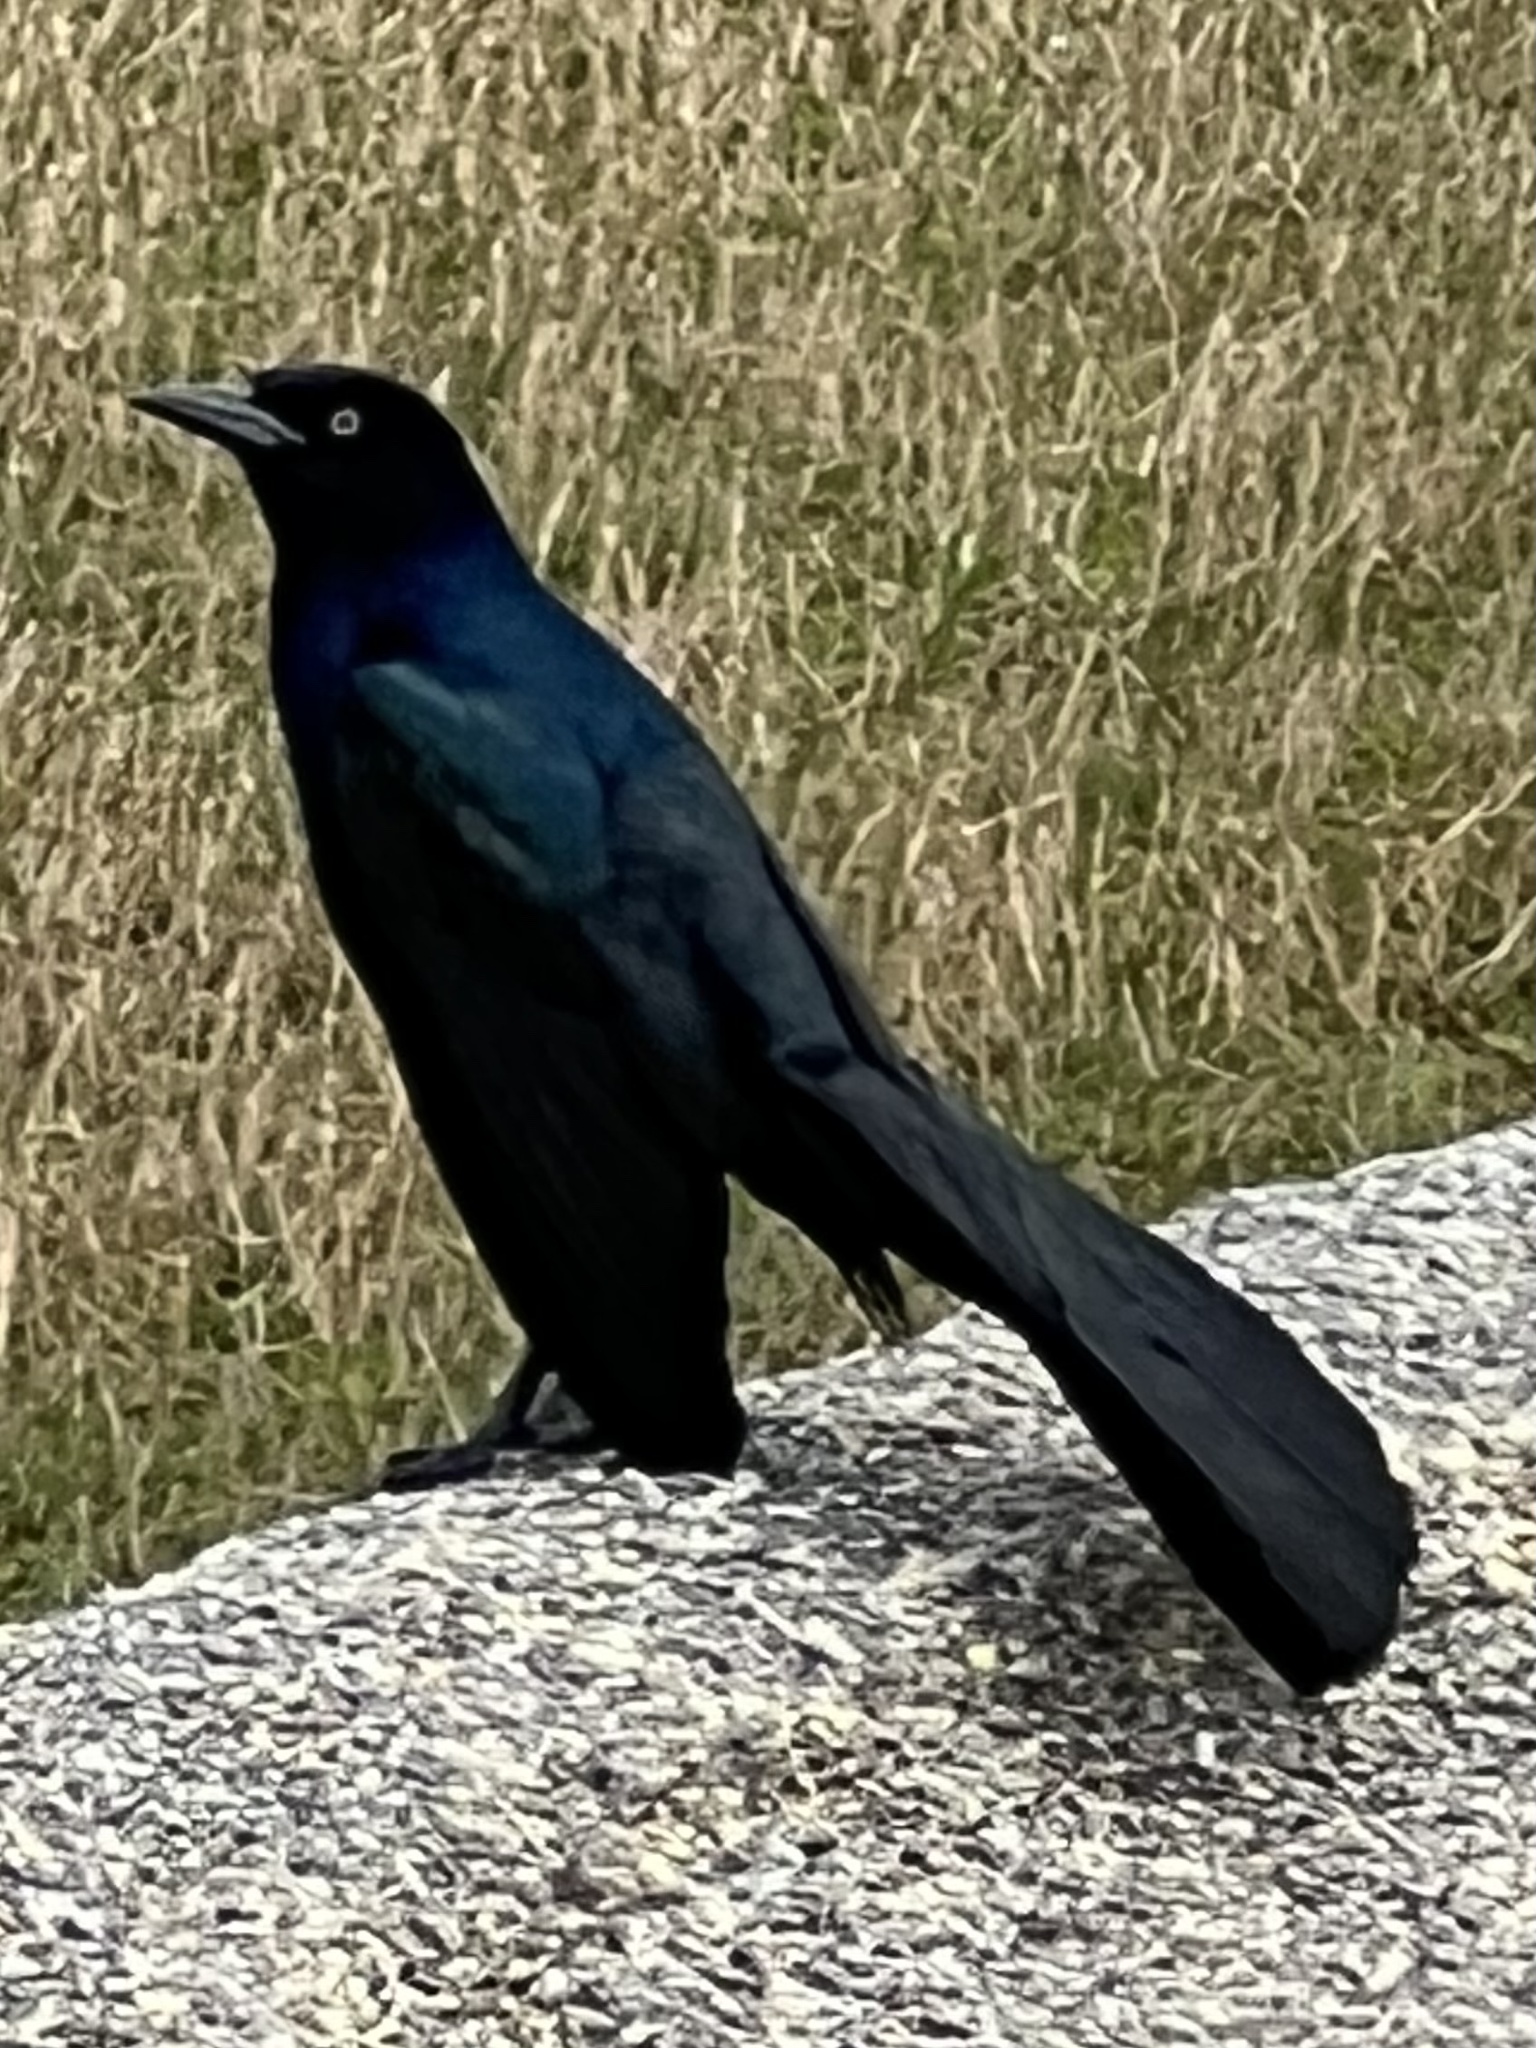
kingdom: Animalia
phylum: Chordata
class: Aves
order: Passeriformes
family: Icteridae
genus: Quiscalus
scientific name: Quiscalus major
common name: Boat-tailed grackle
